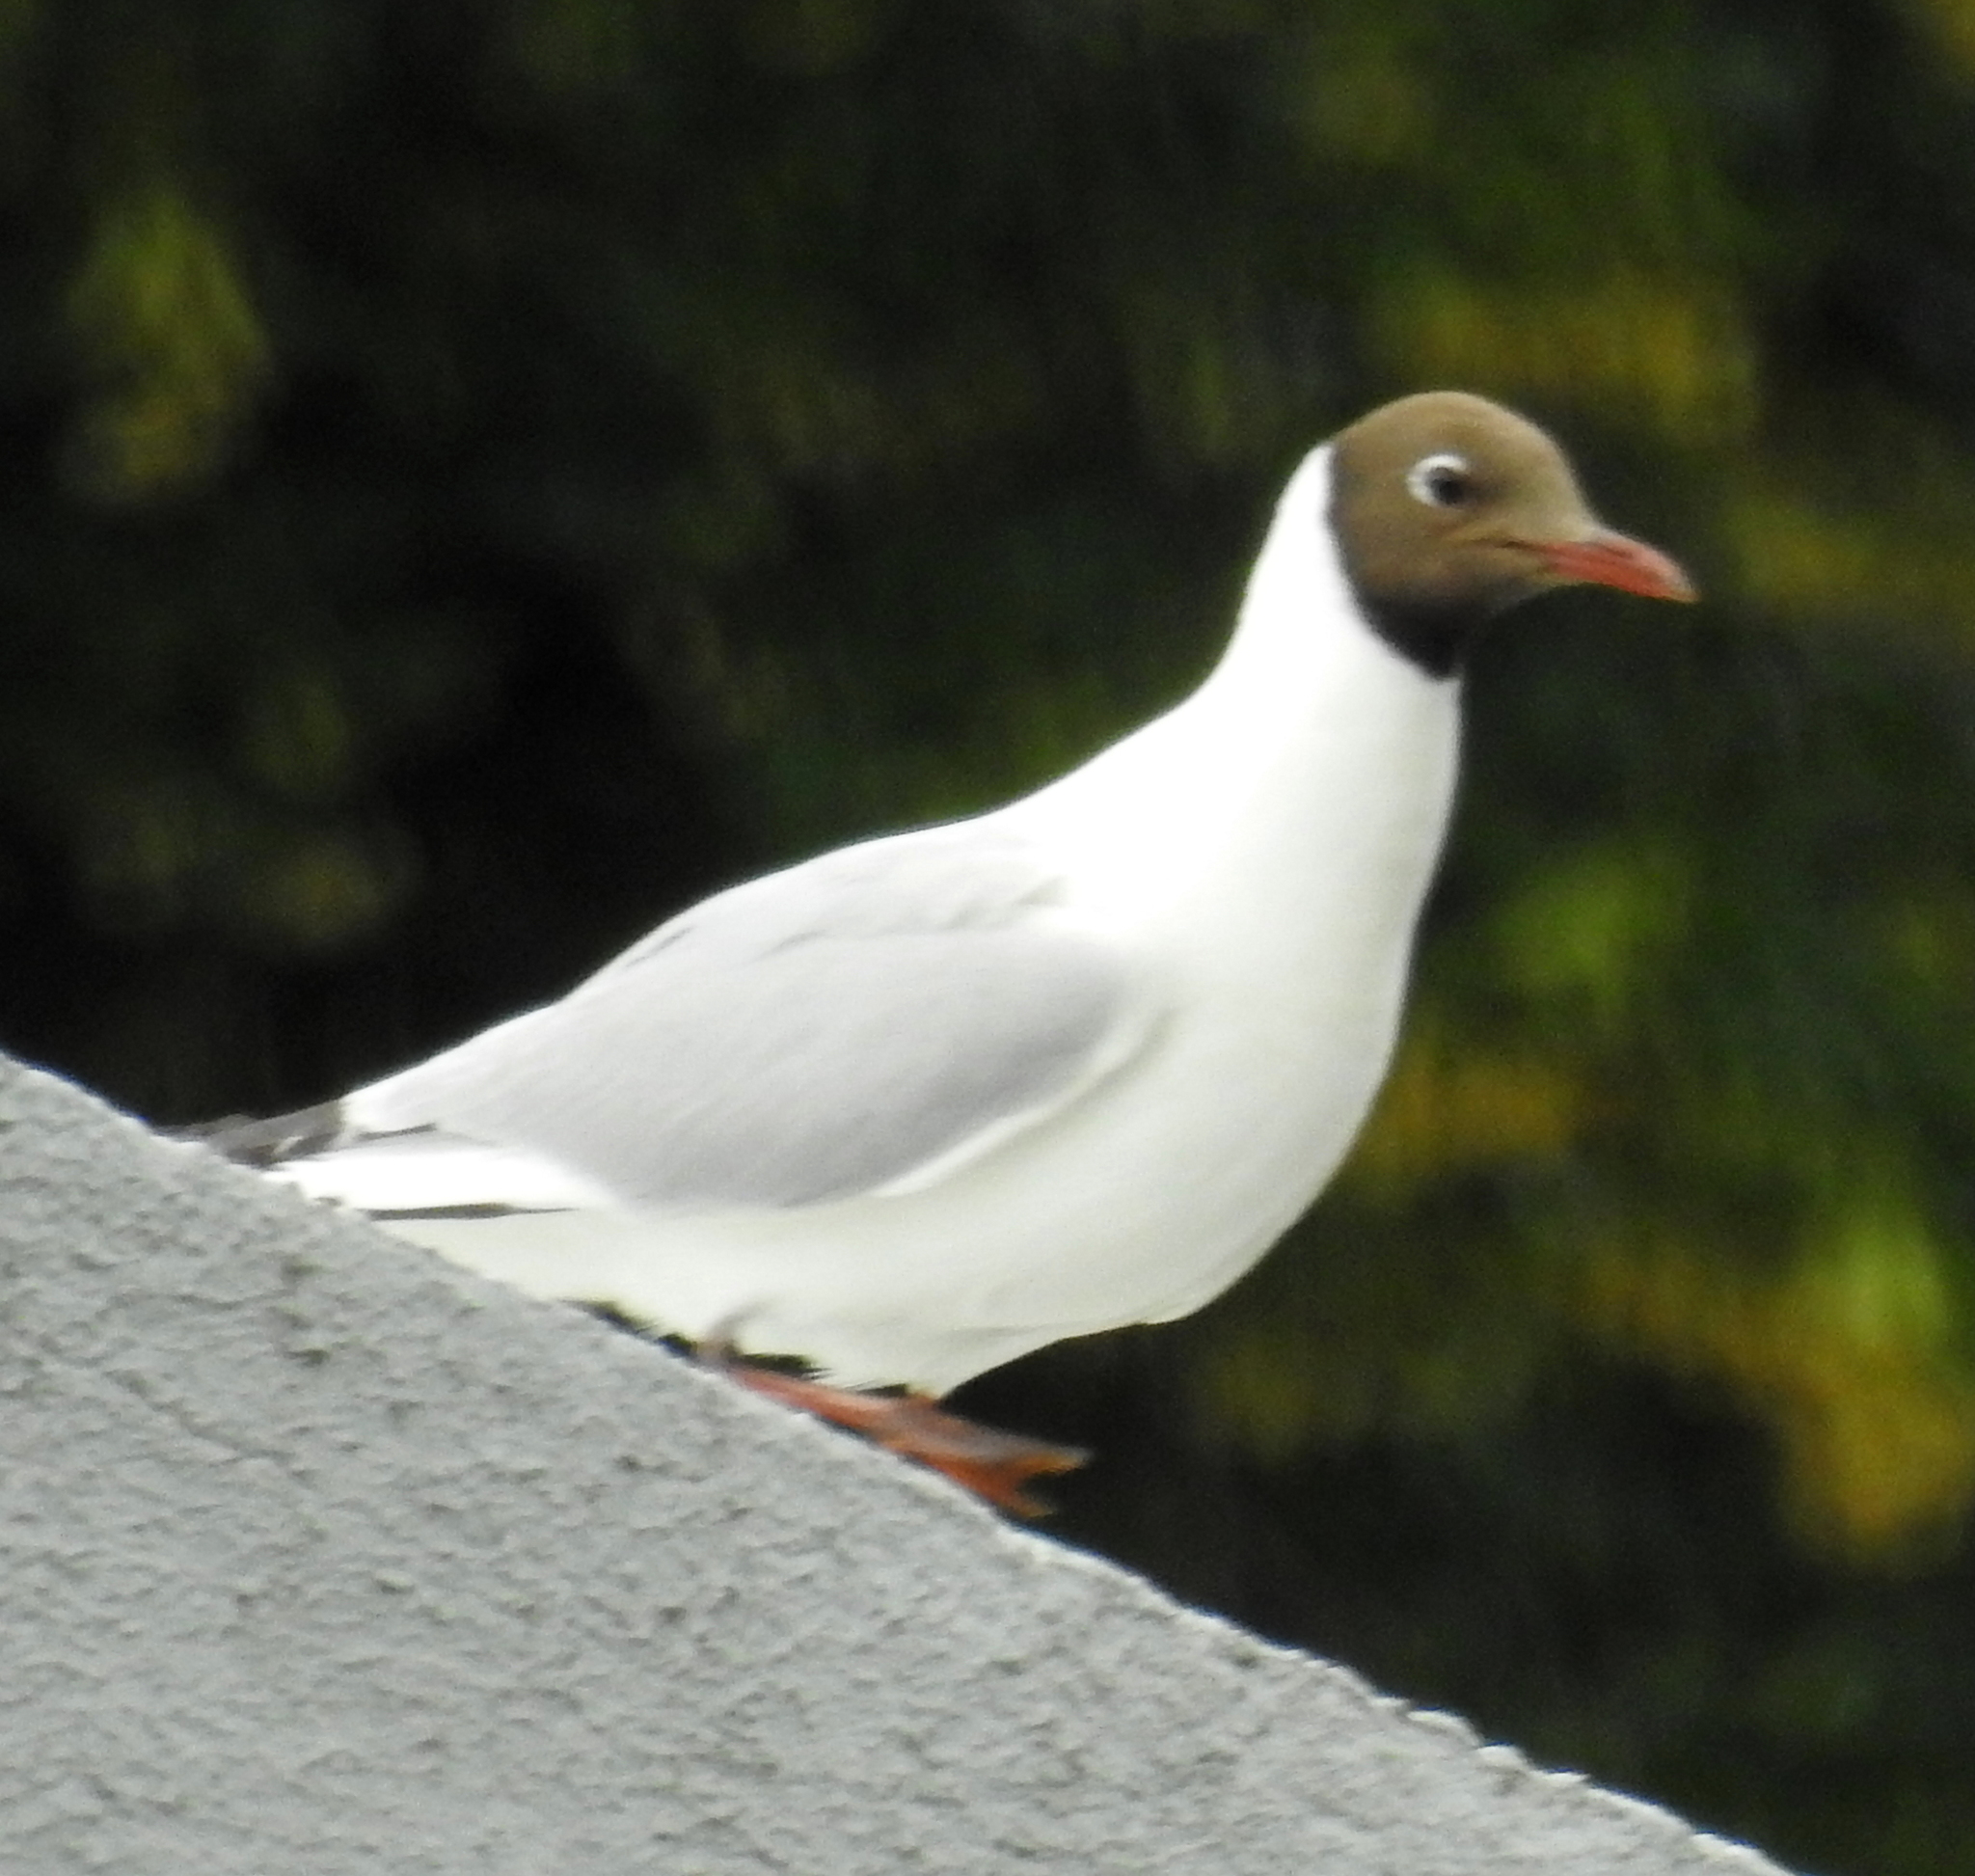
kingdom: Animalia
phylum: Chordata
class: Aves
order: Charadriiformes
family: Laridae
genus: Chroicocephalus
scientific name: Chroicocephalus ridibundus
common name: Black-headed gull
